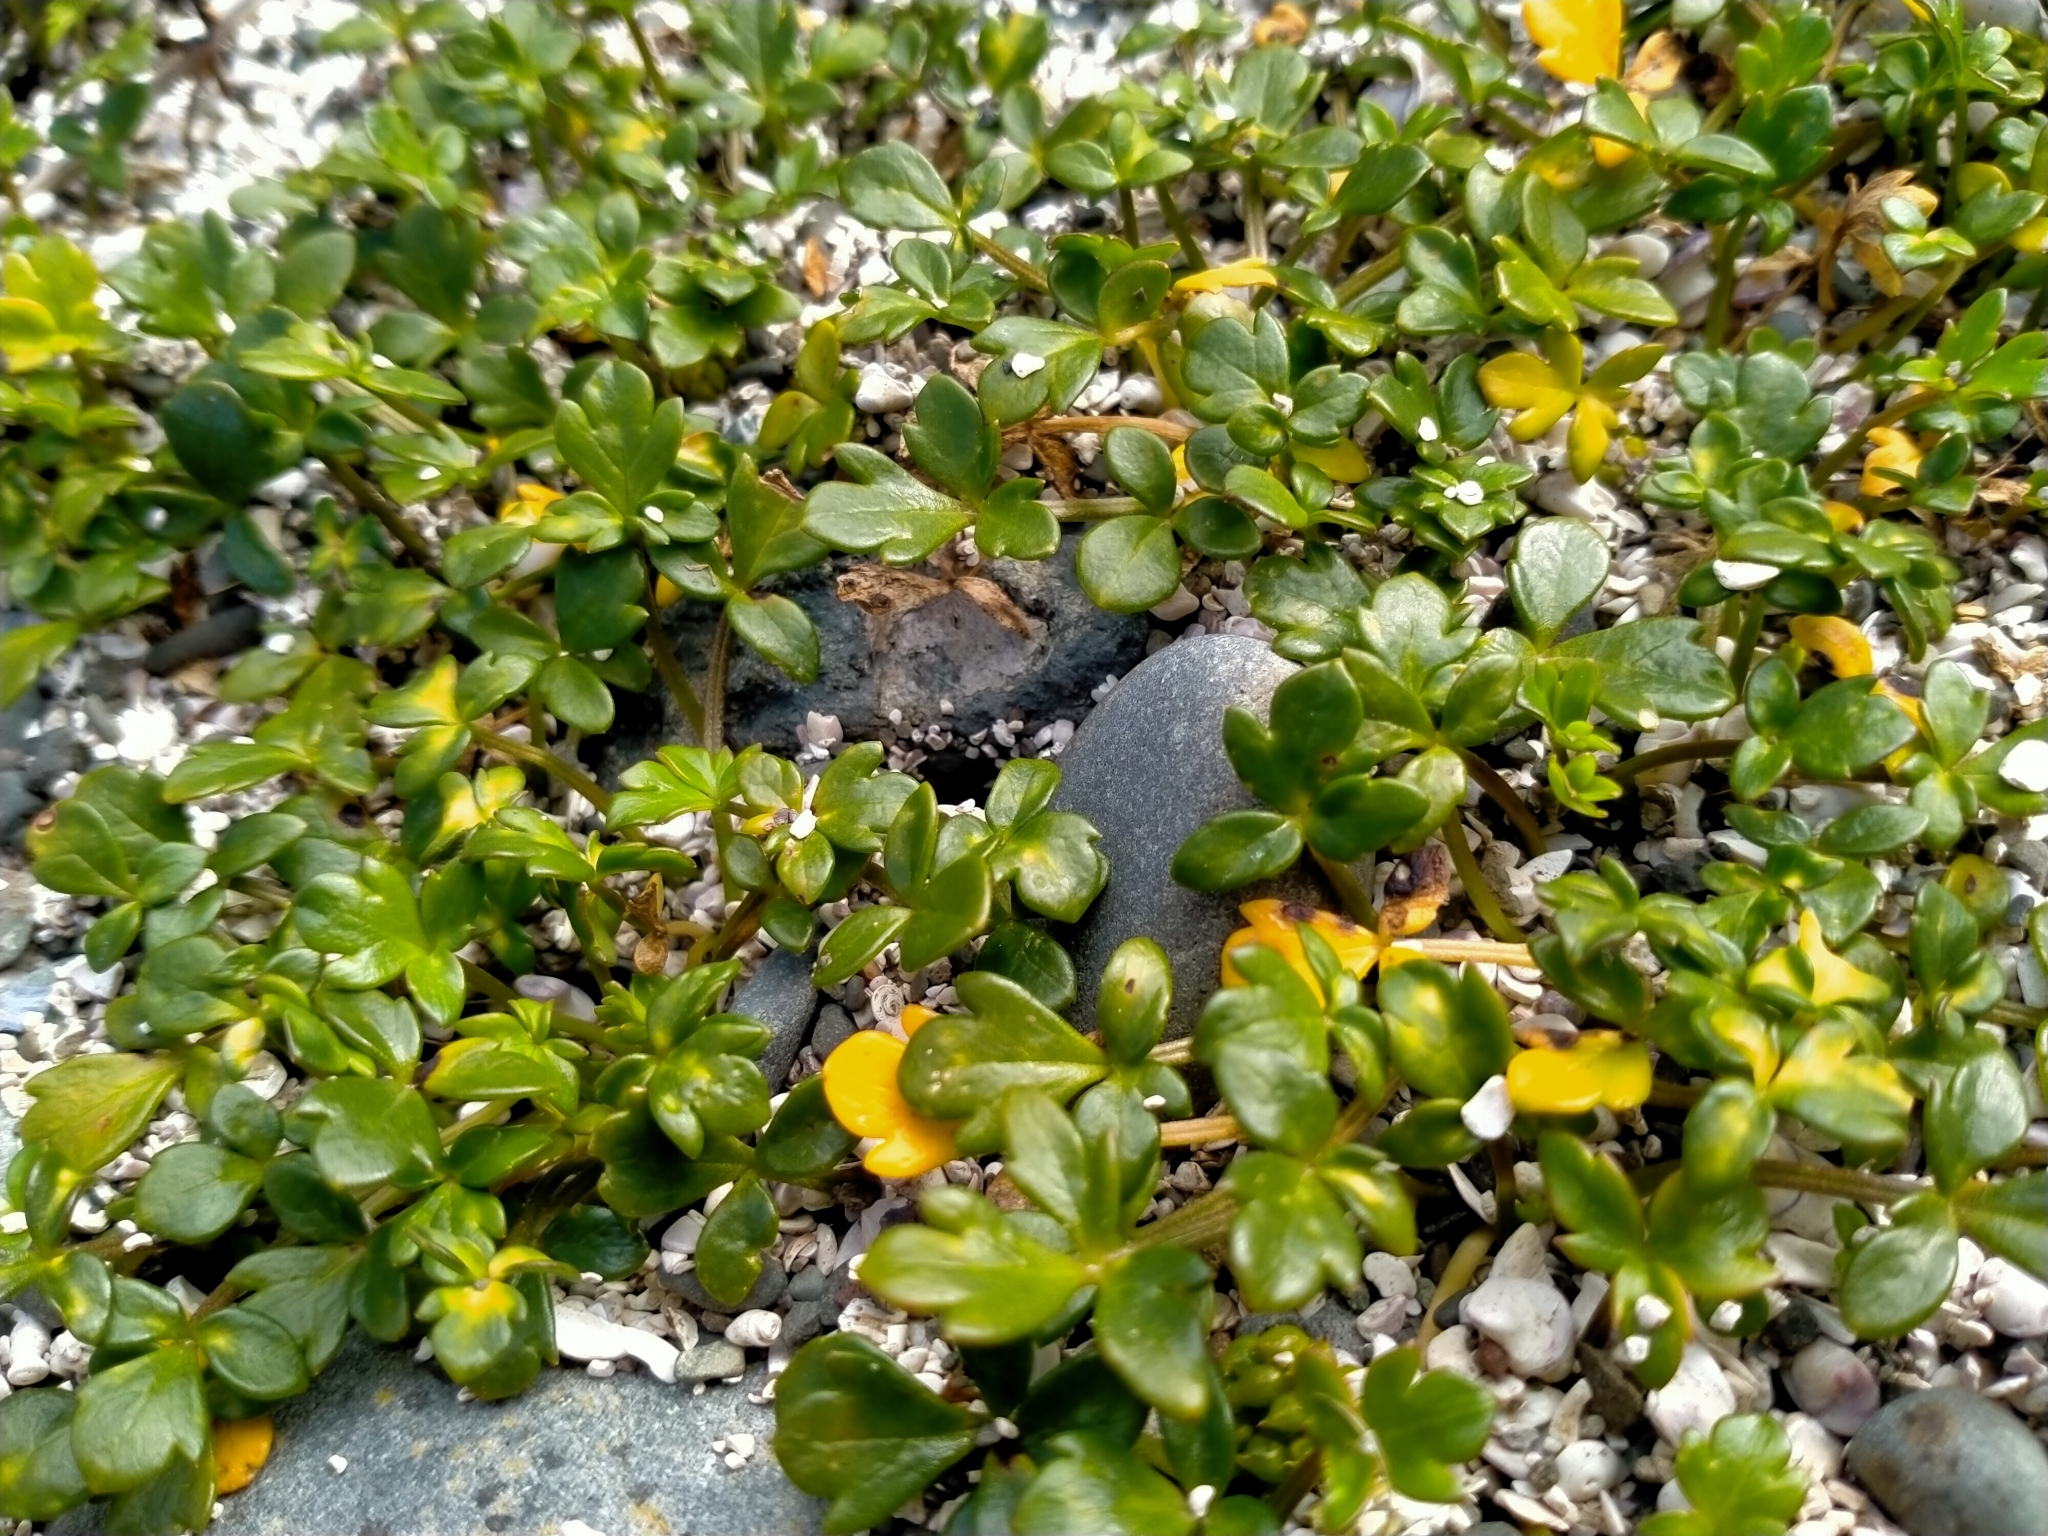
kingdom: Plantae
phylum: Tracheophyta
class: Magnoliopsida
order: Ranunculales
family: Ranunculaceae
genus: Ranunculus
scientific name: Ranunculus acaulis
